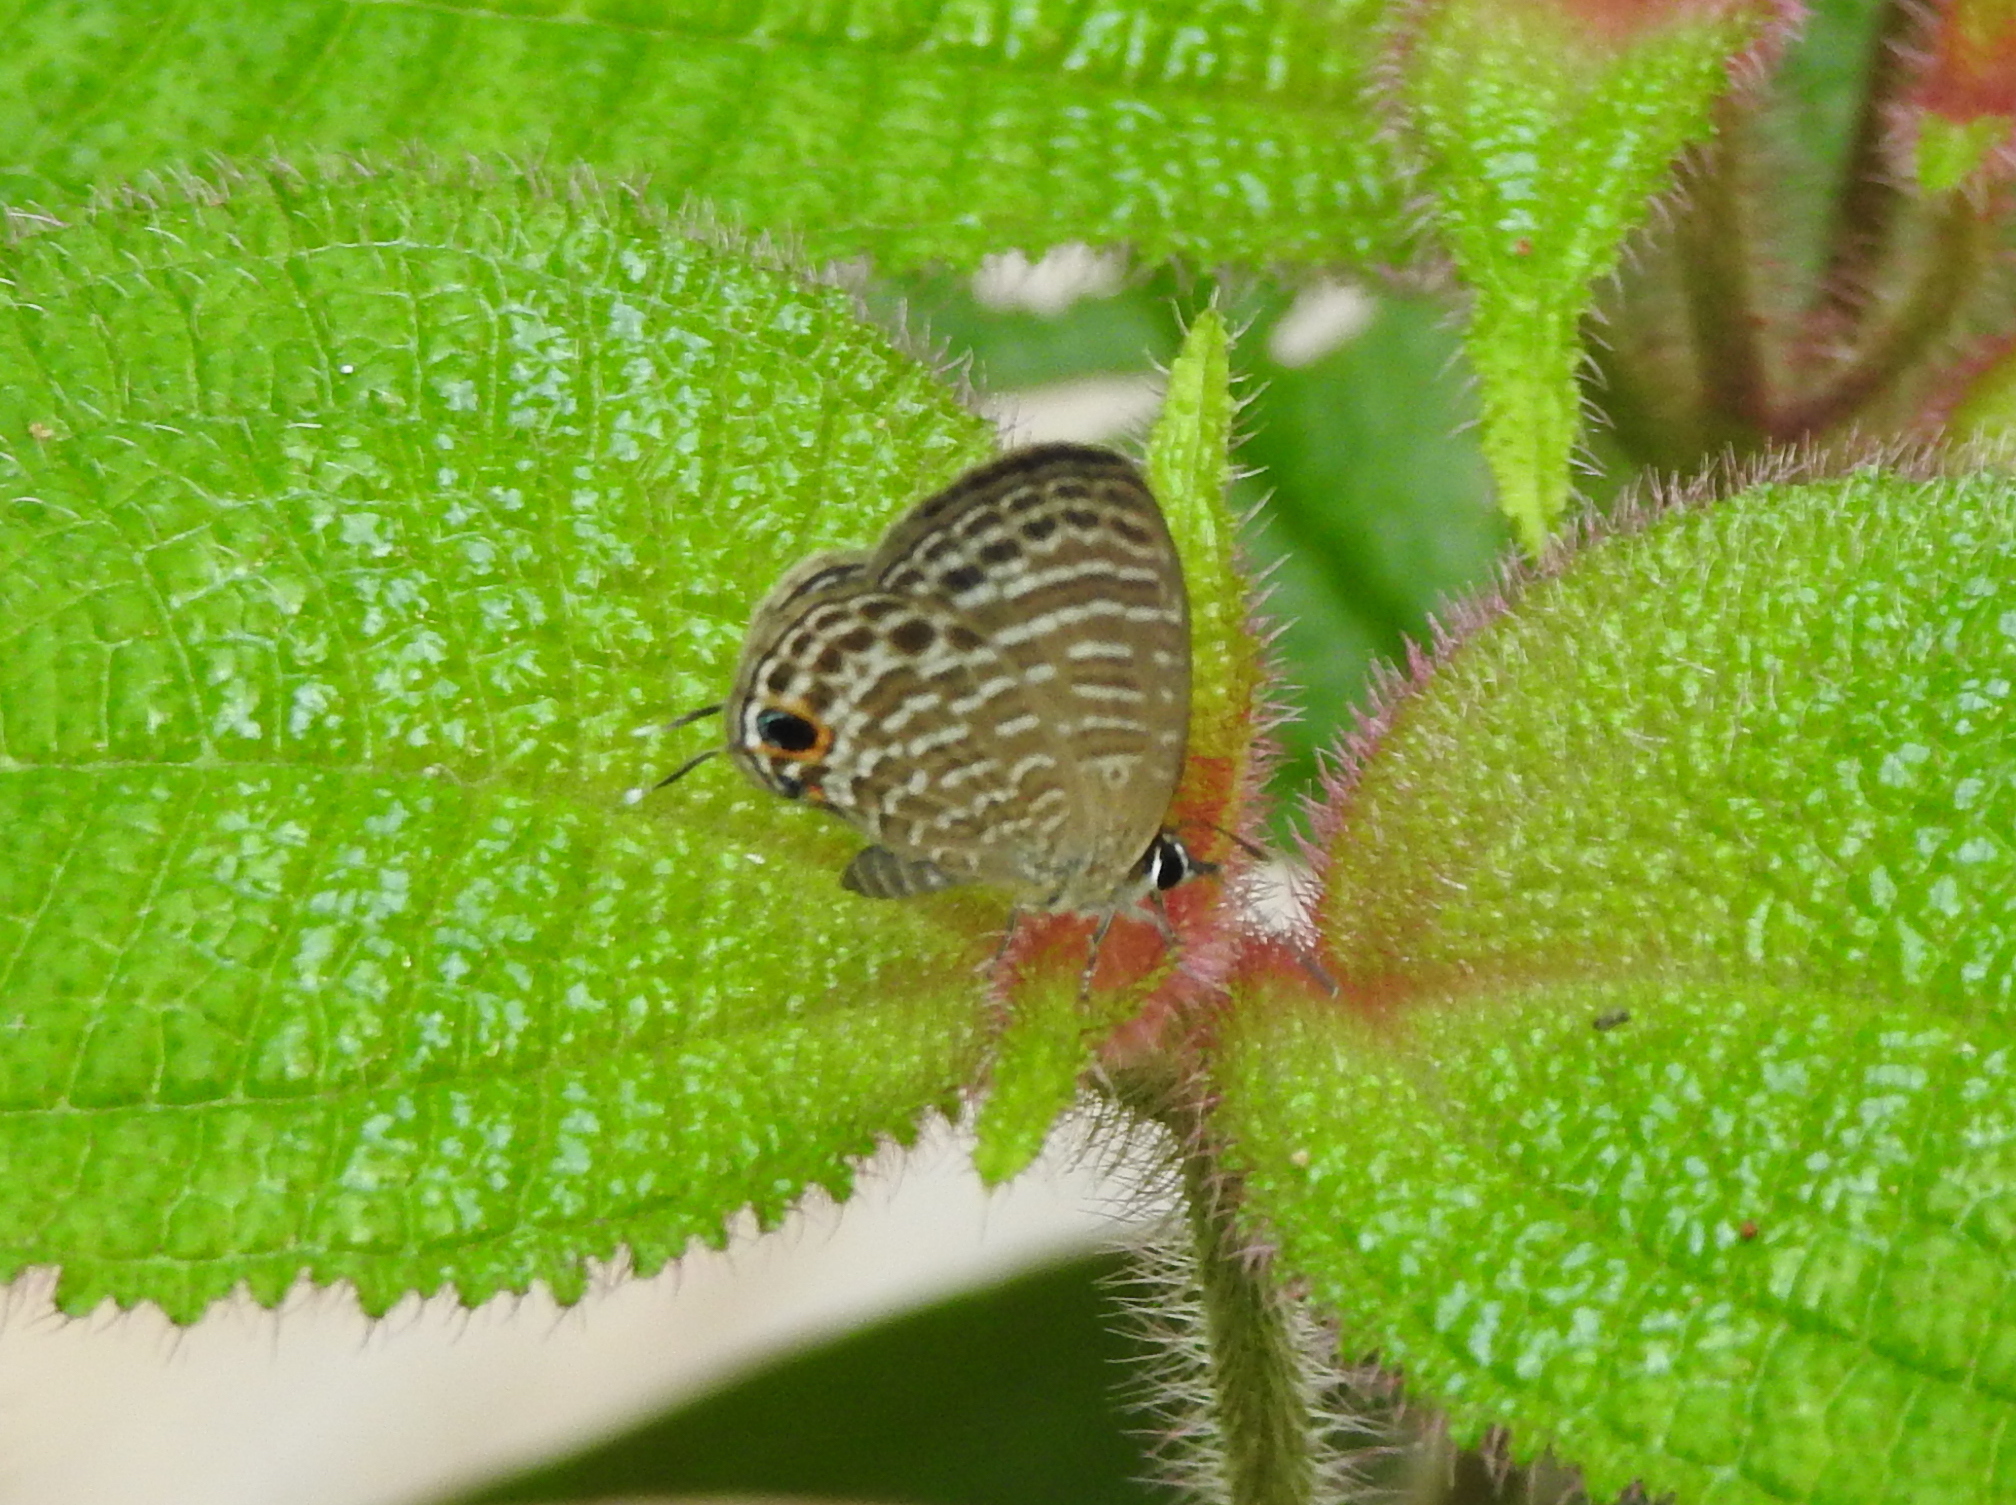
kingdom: Animalia
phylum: Arthropoda
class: Insecta
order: Lepidoptera
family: Lycaenidae
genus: Nacaduba
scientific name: Nacaduba kurava
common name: Transparent 6-line blue
